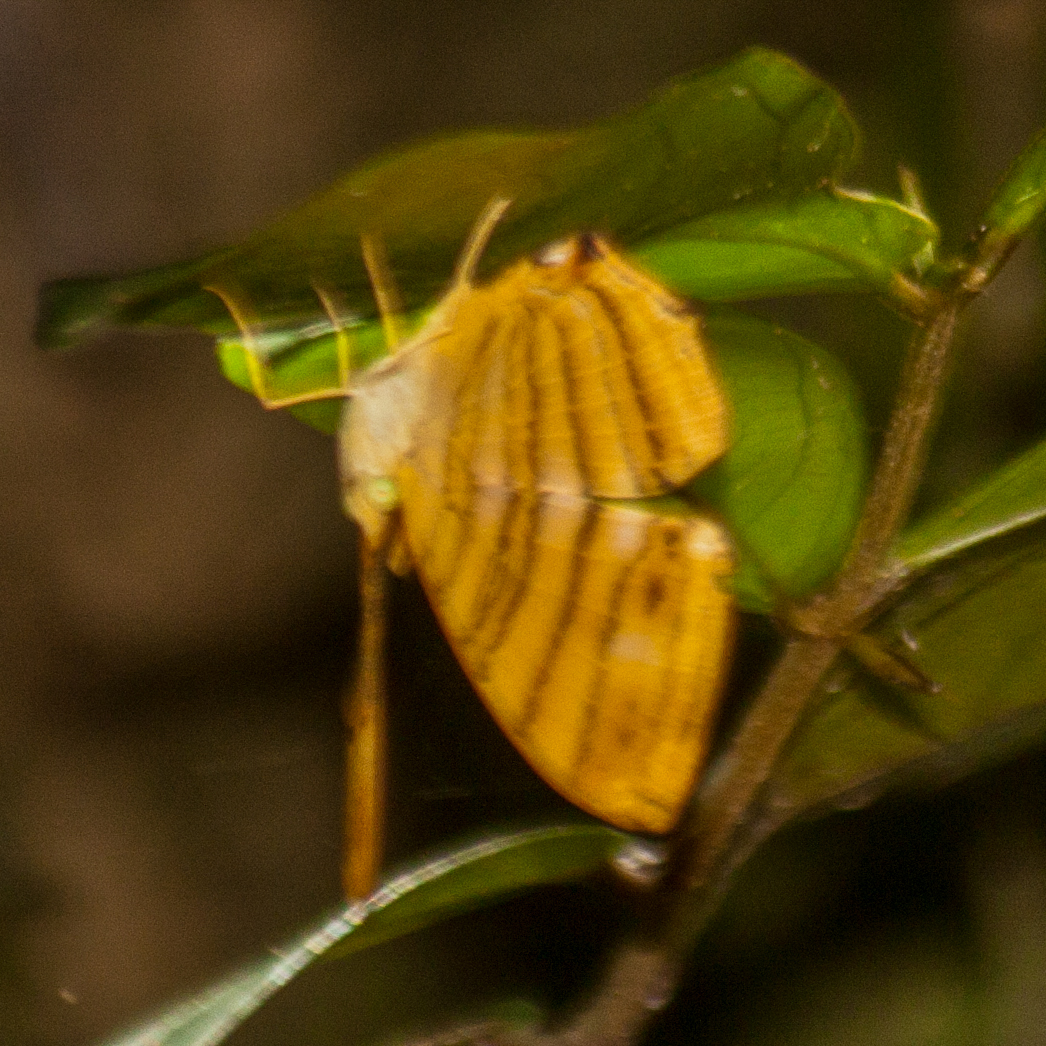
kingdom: Animalia
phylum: Arthropoda
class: Insecta
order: Lepidoptera
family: Nymphalidae
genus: Chersonesia
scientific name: Chersonesia risa
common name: Common maplet
